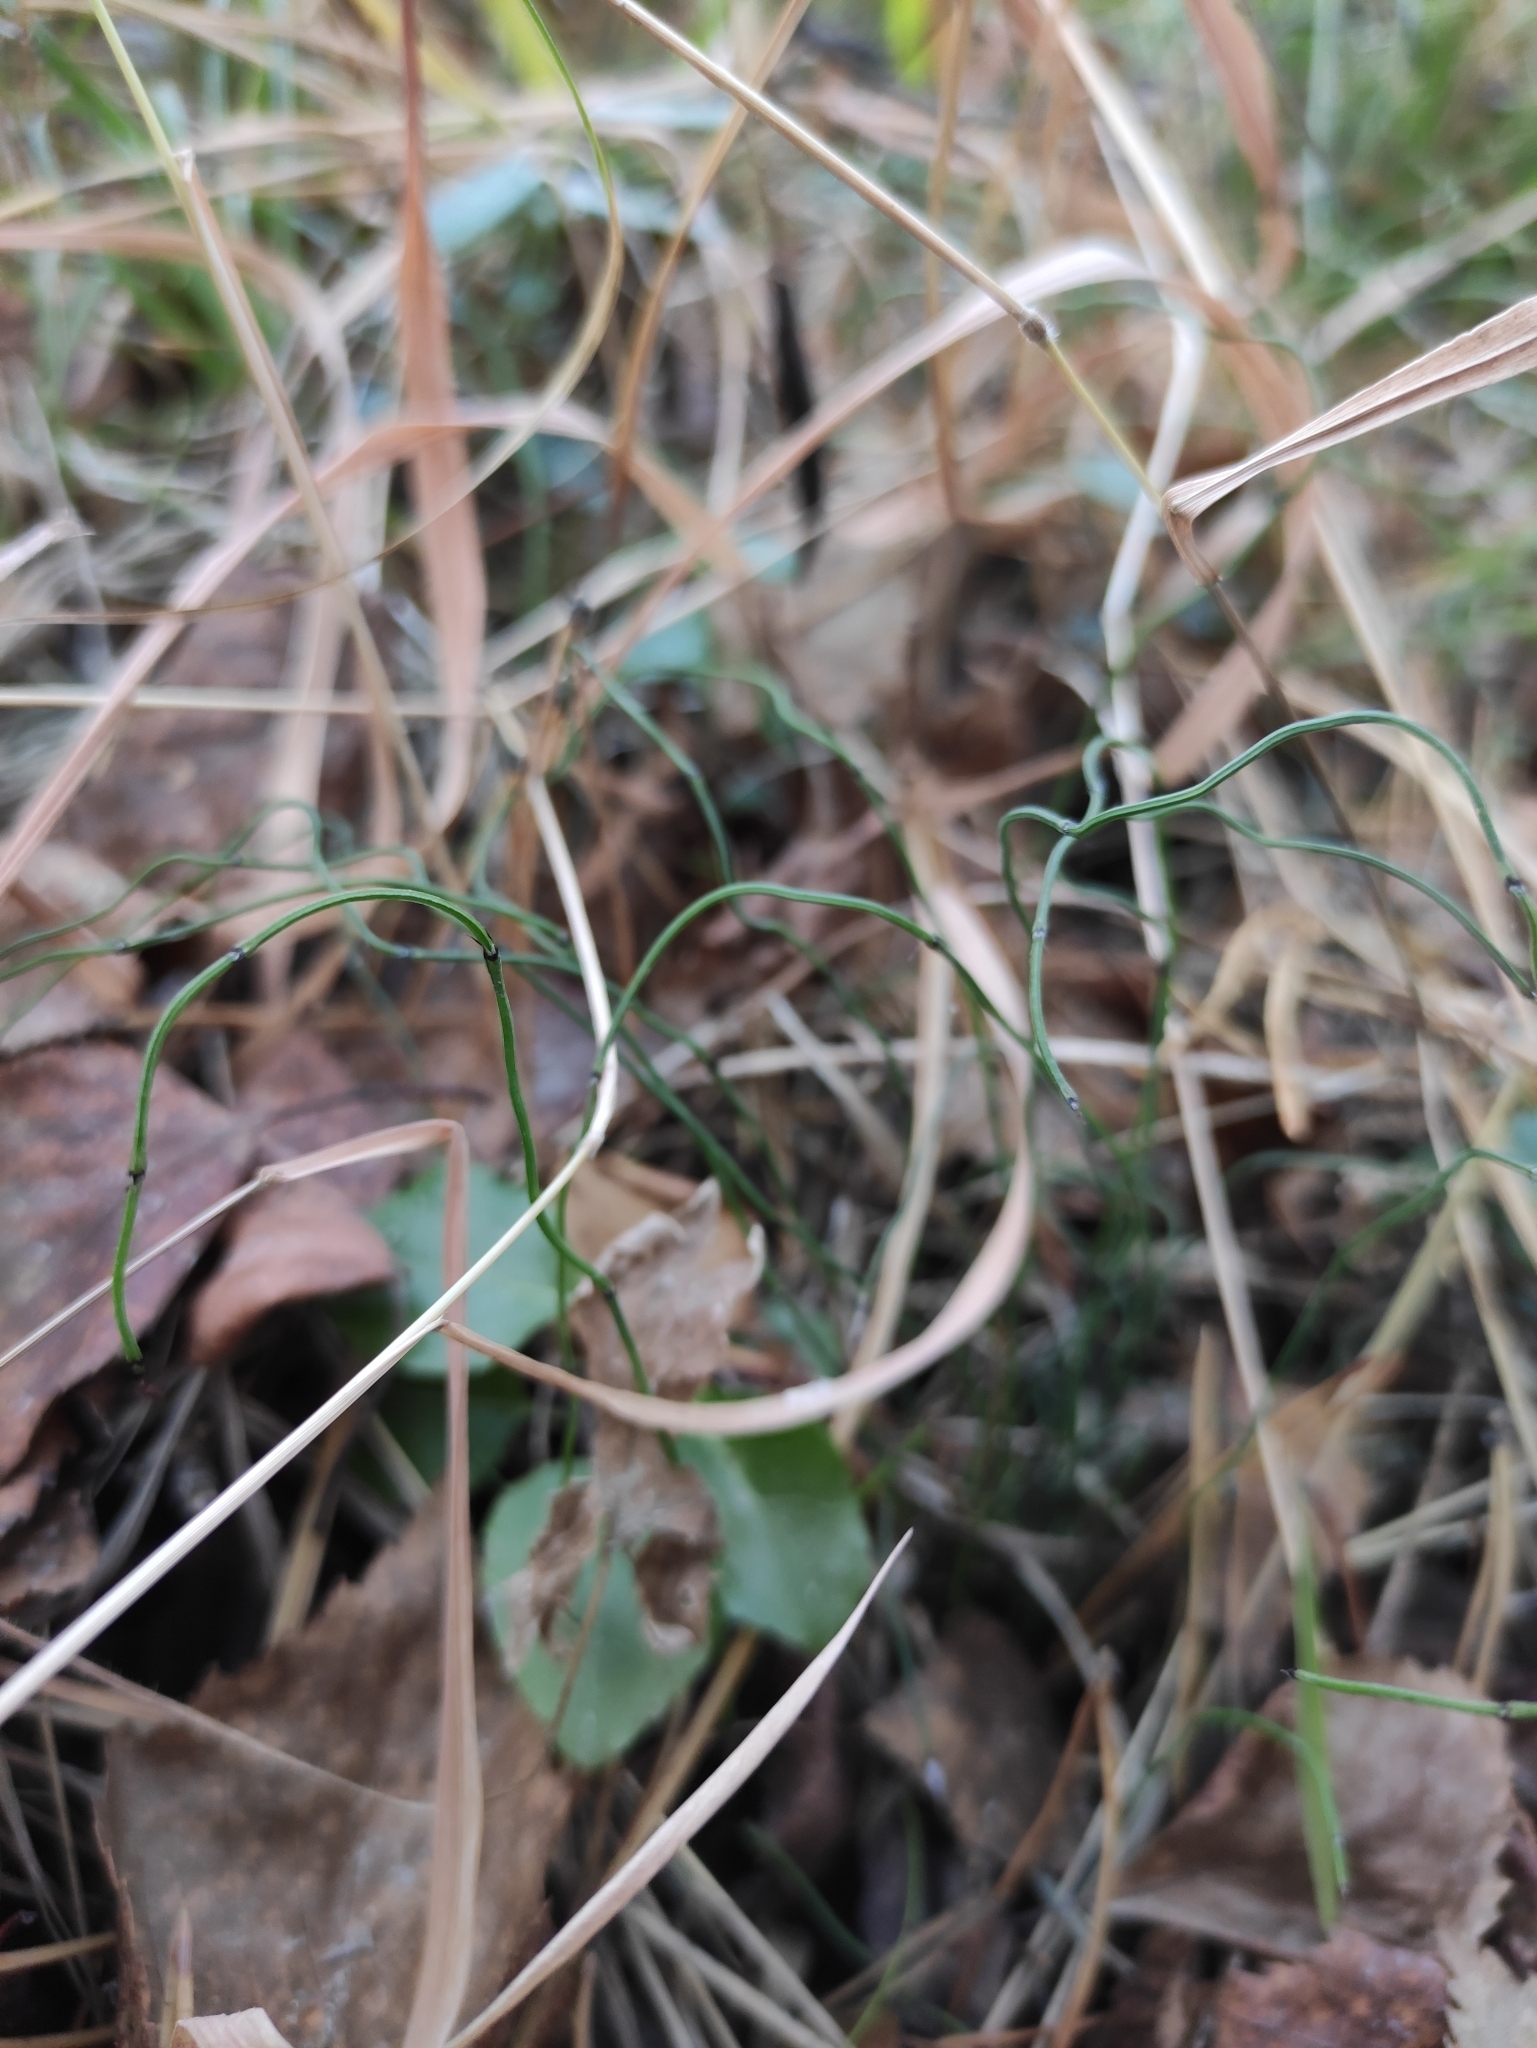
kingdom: Plantae
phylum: Tracheophyta
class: Polypodiopsida
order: Equisetales
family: Equisetaceae
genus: Equisetum
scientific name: Equisetum scirpoides
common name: Delicate horsetail
